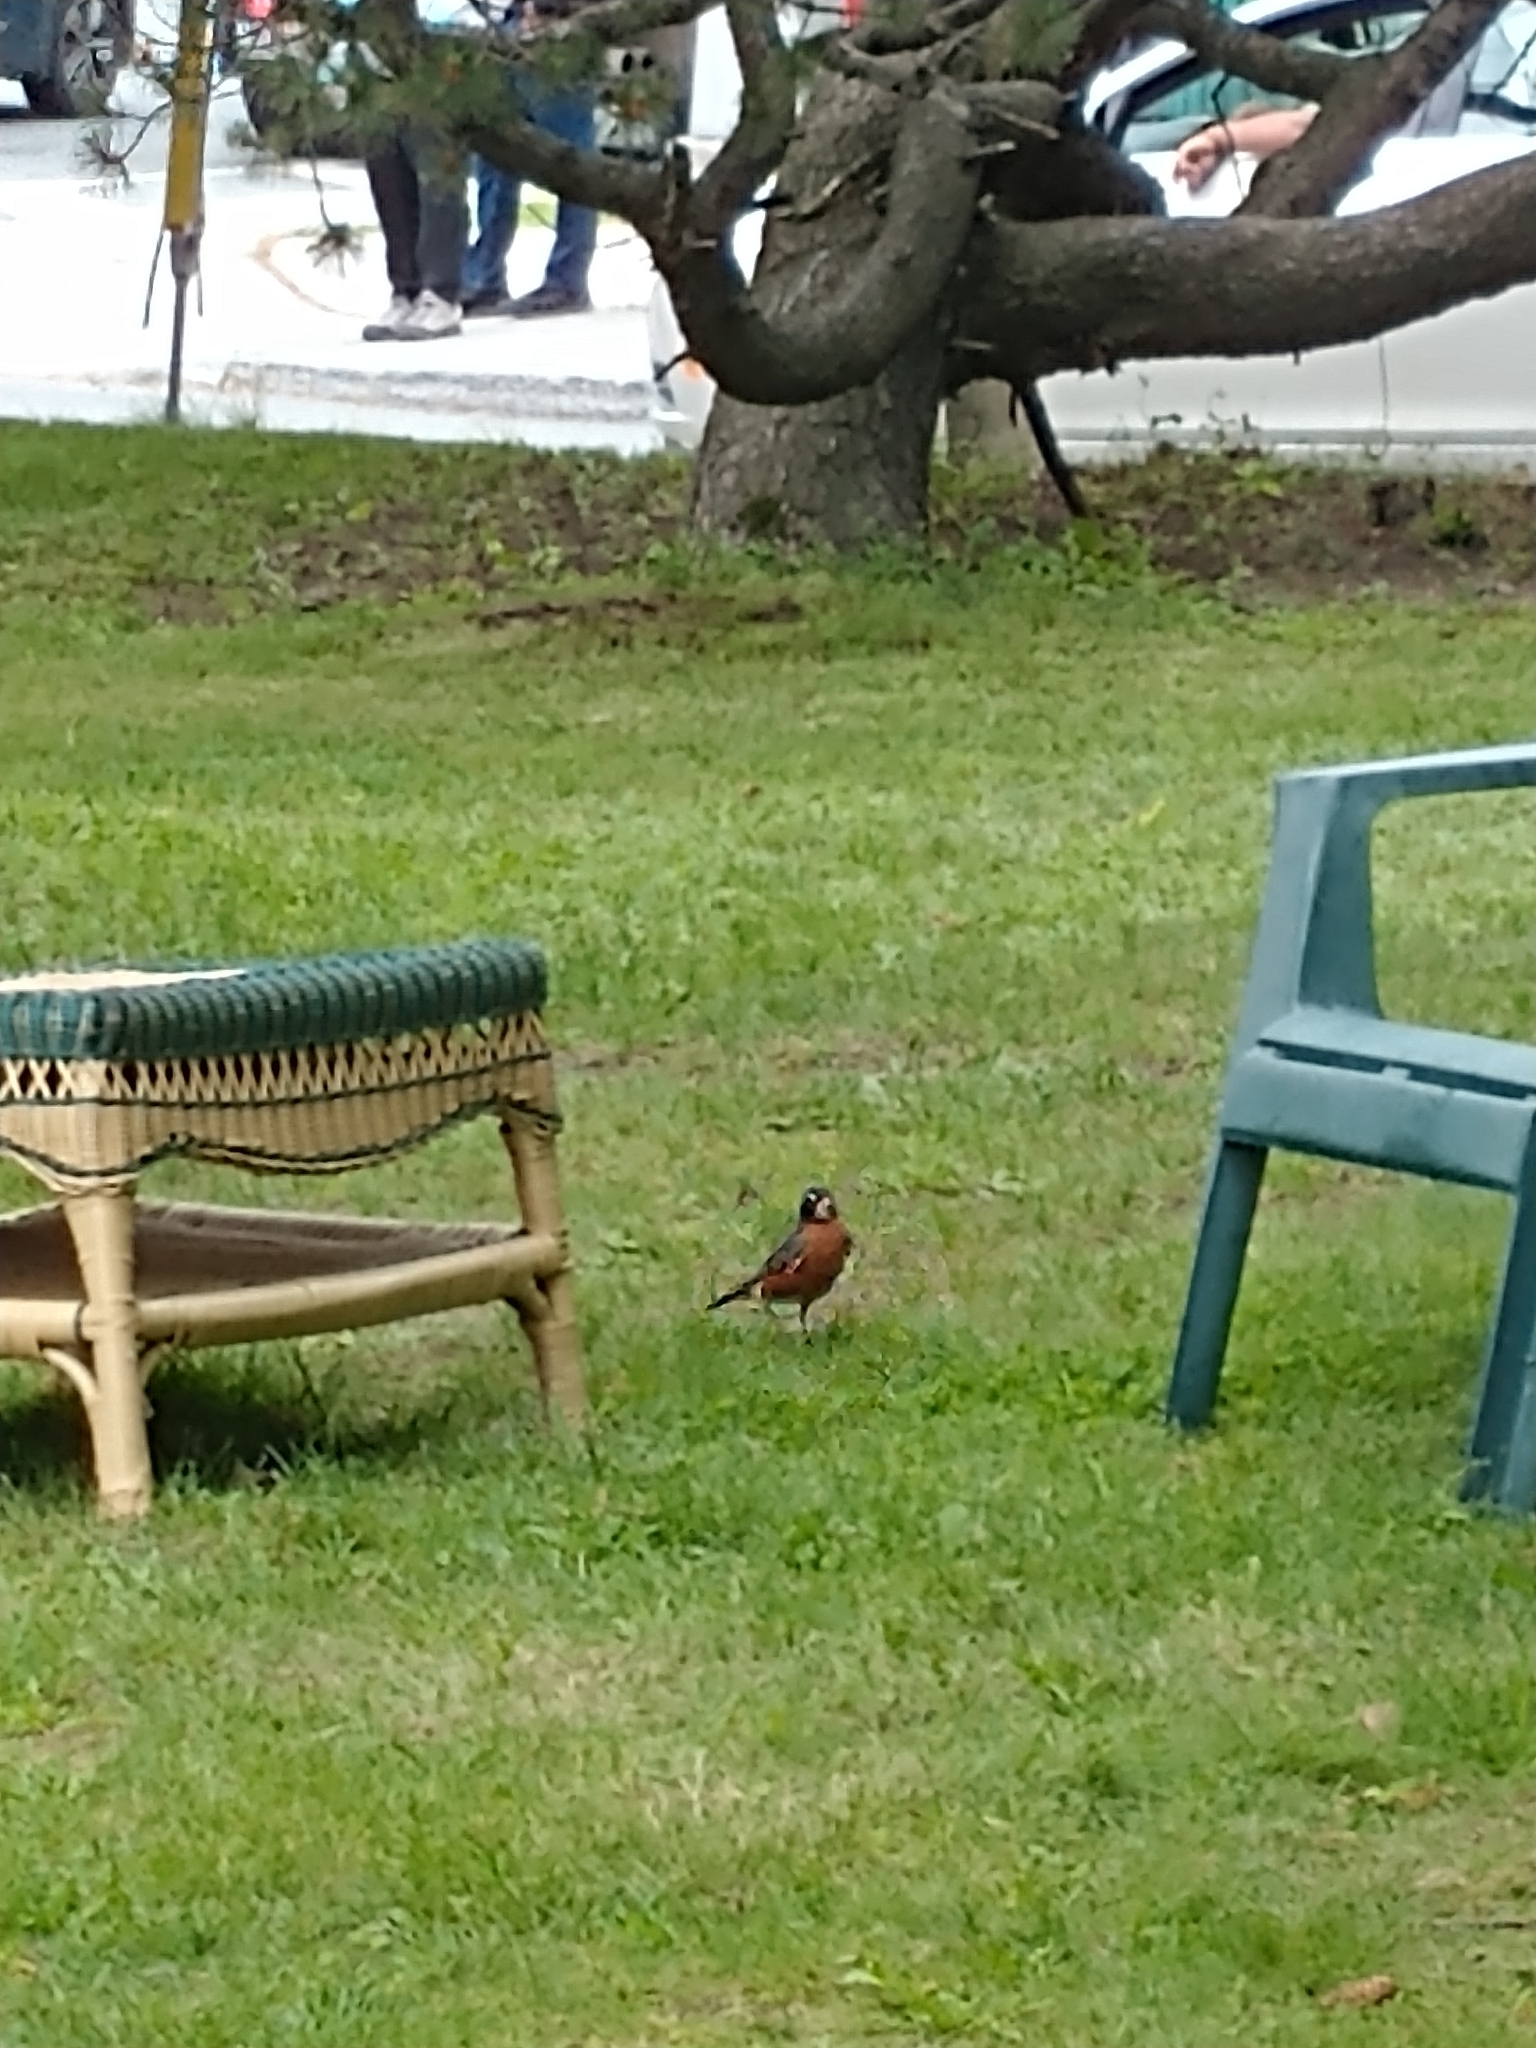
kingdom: Animalia
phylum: Chordata
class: Aves
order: Passeriformes
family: Turdidae
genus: Turdus
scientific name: Turdus migratorius
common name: American robin
